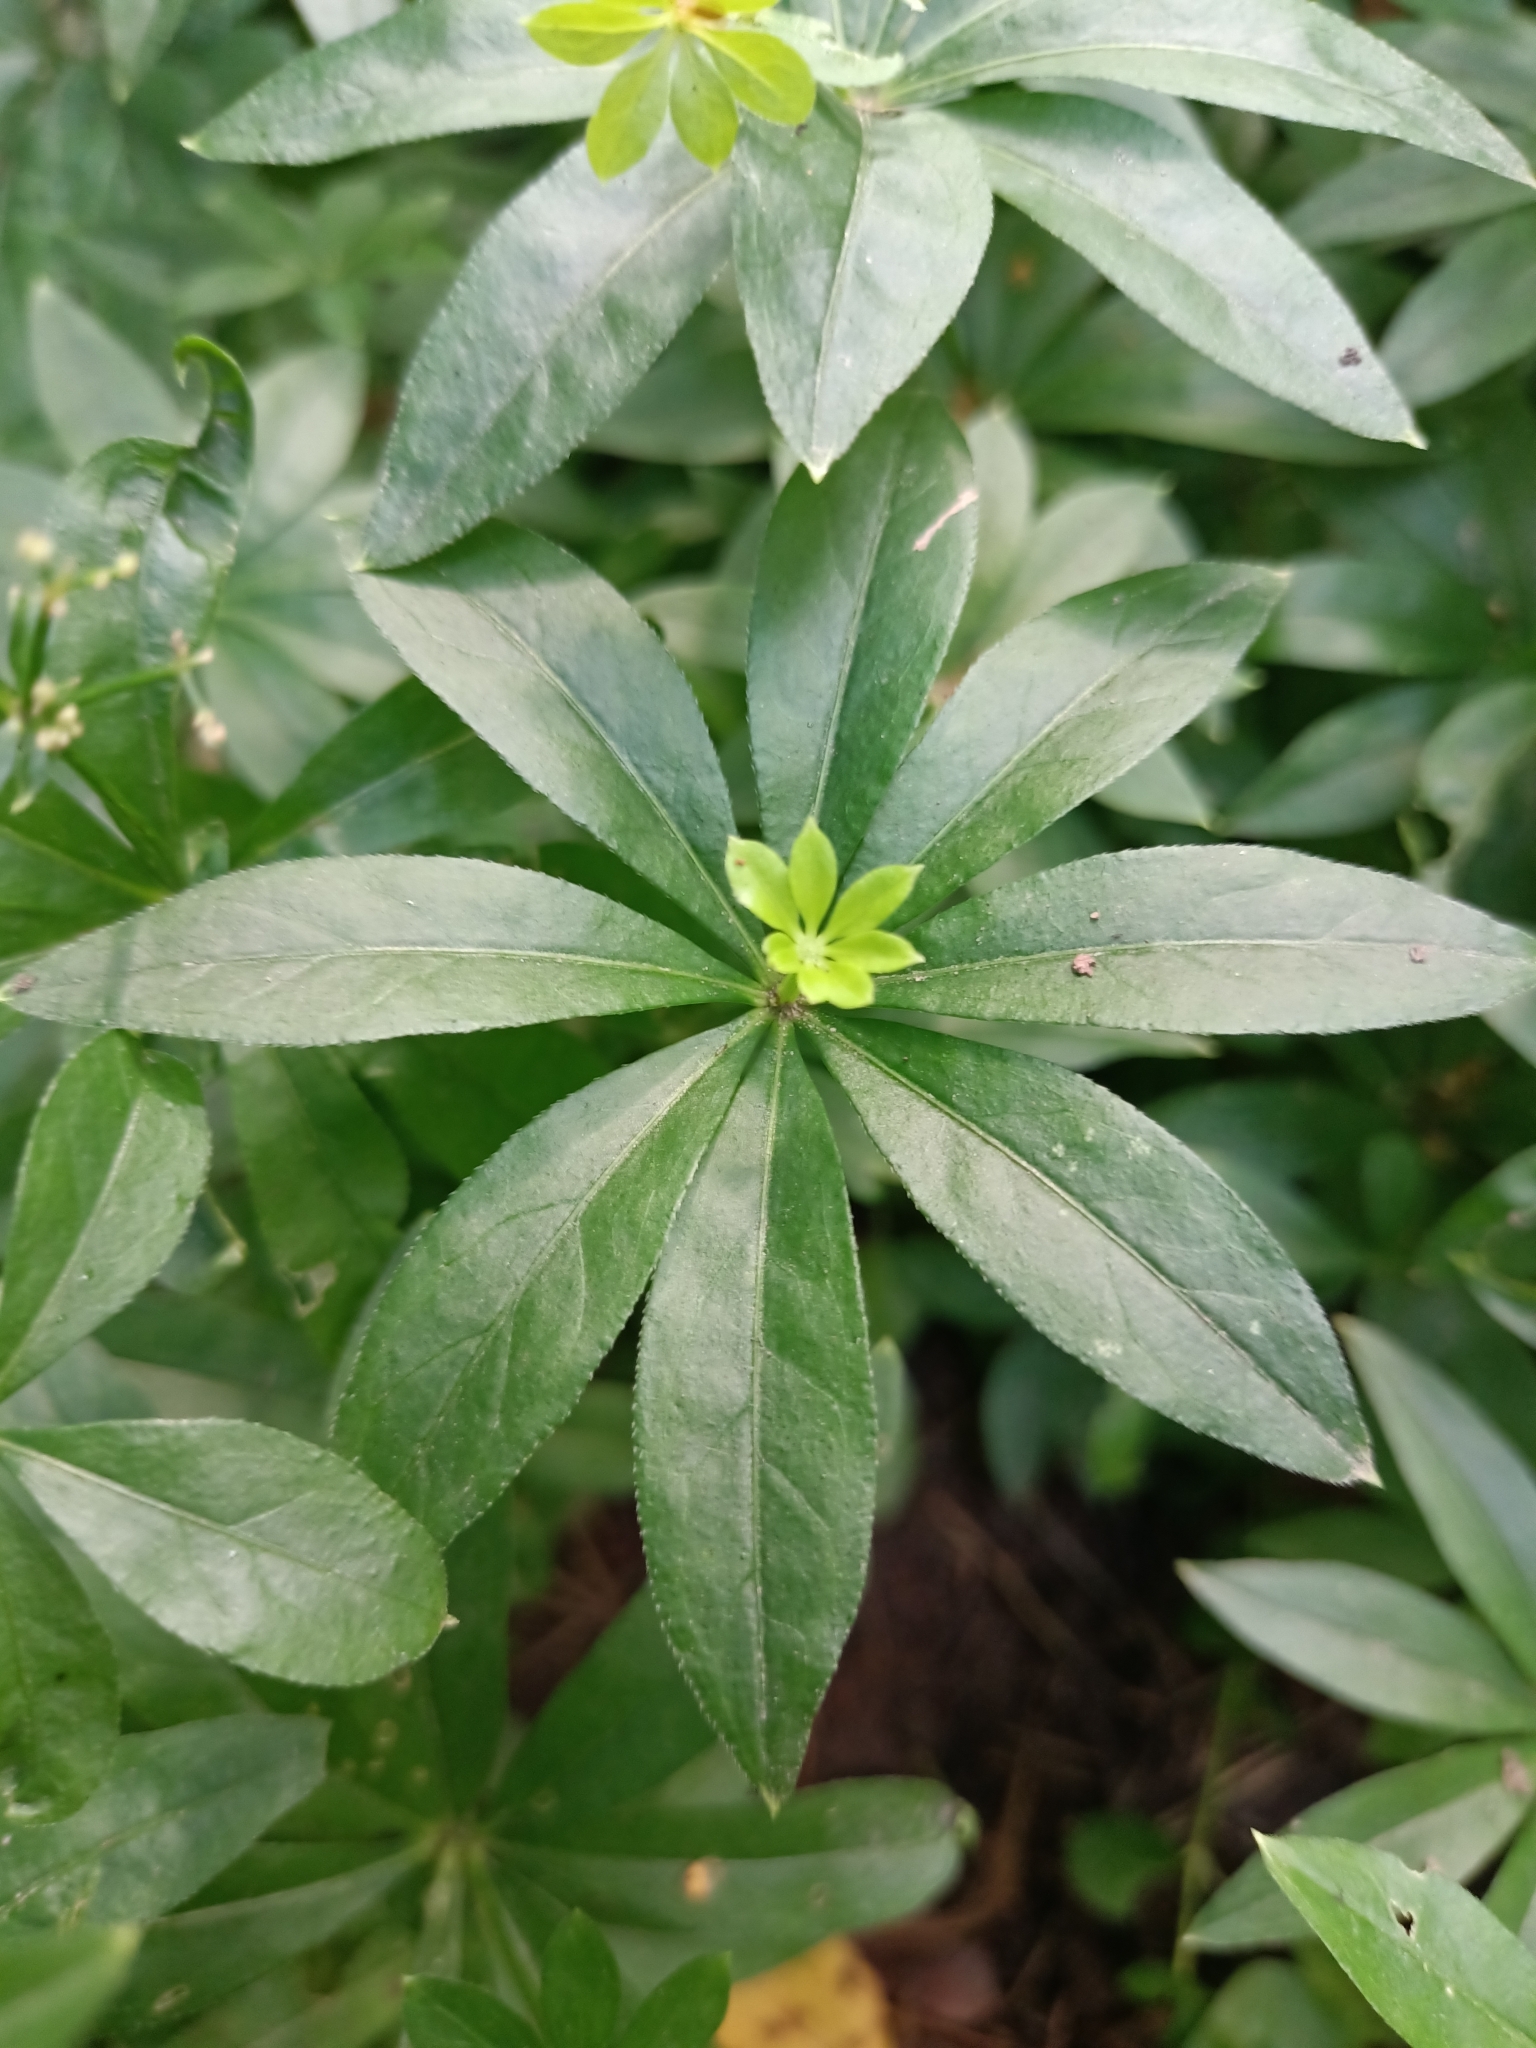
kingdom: Plantae
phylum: Tracheophyta
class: Magnoliopsida
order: Gentianales
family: Rubiaceae
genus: Galium
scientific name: Galium odoratum
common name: Sweet woodruff
